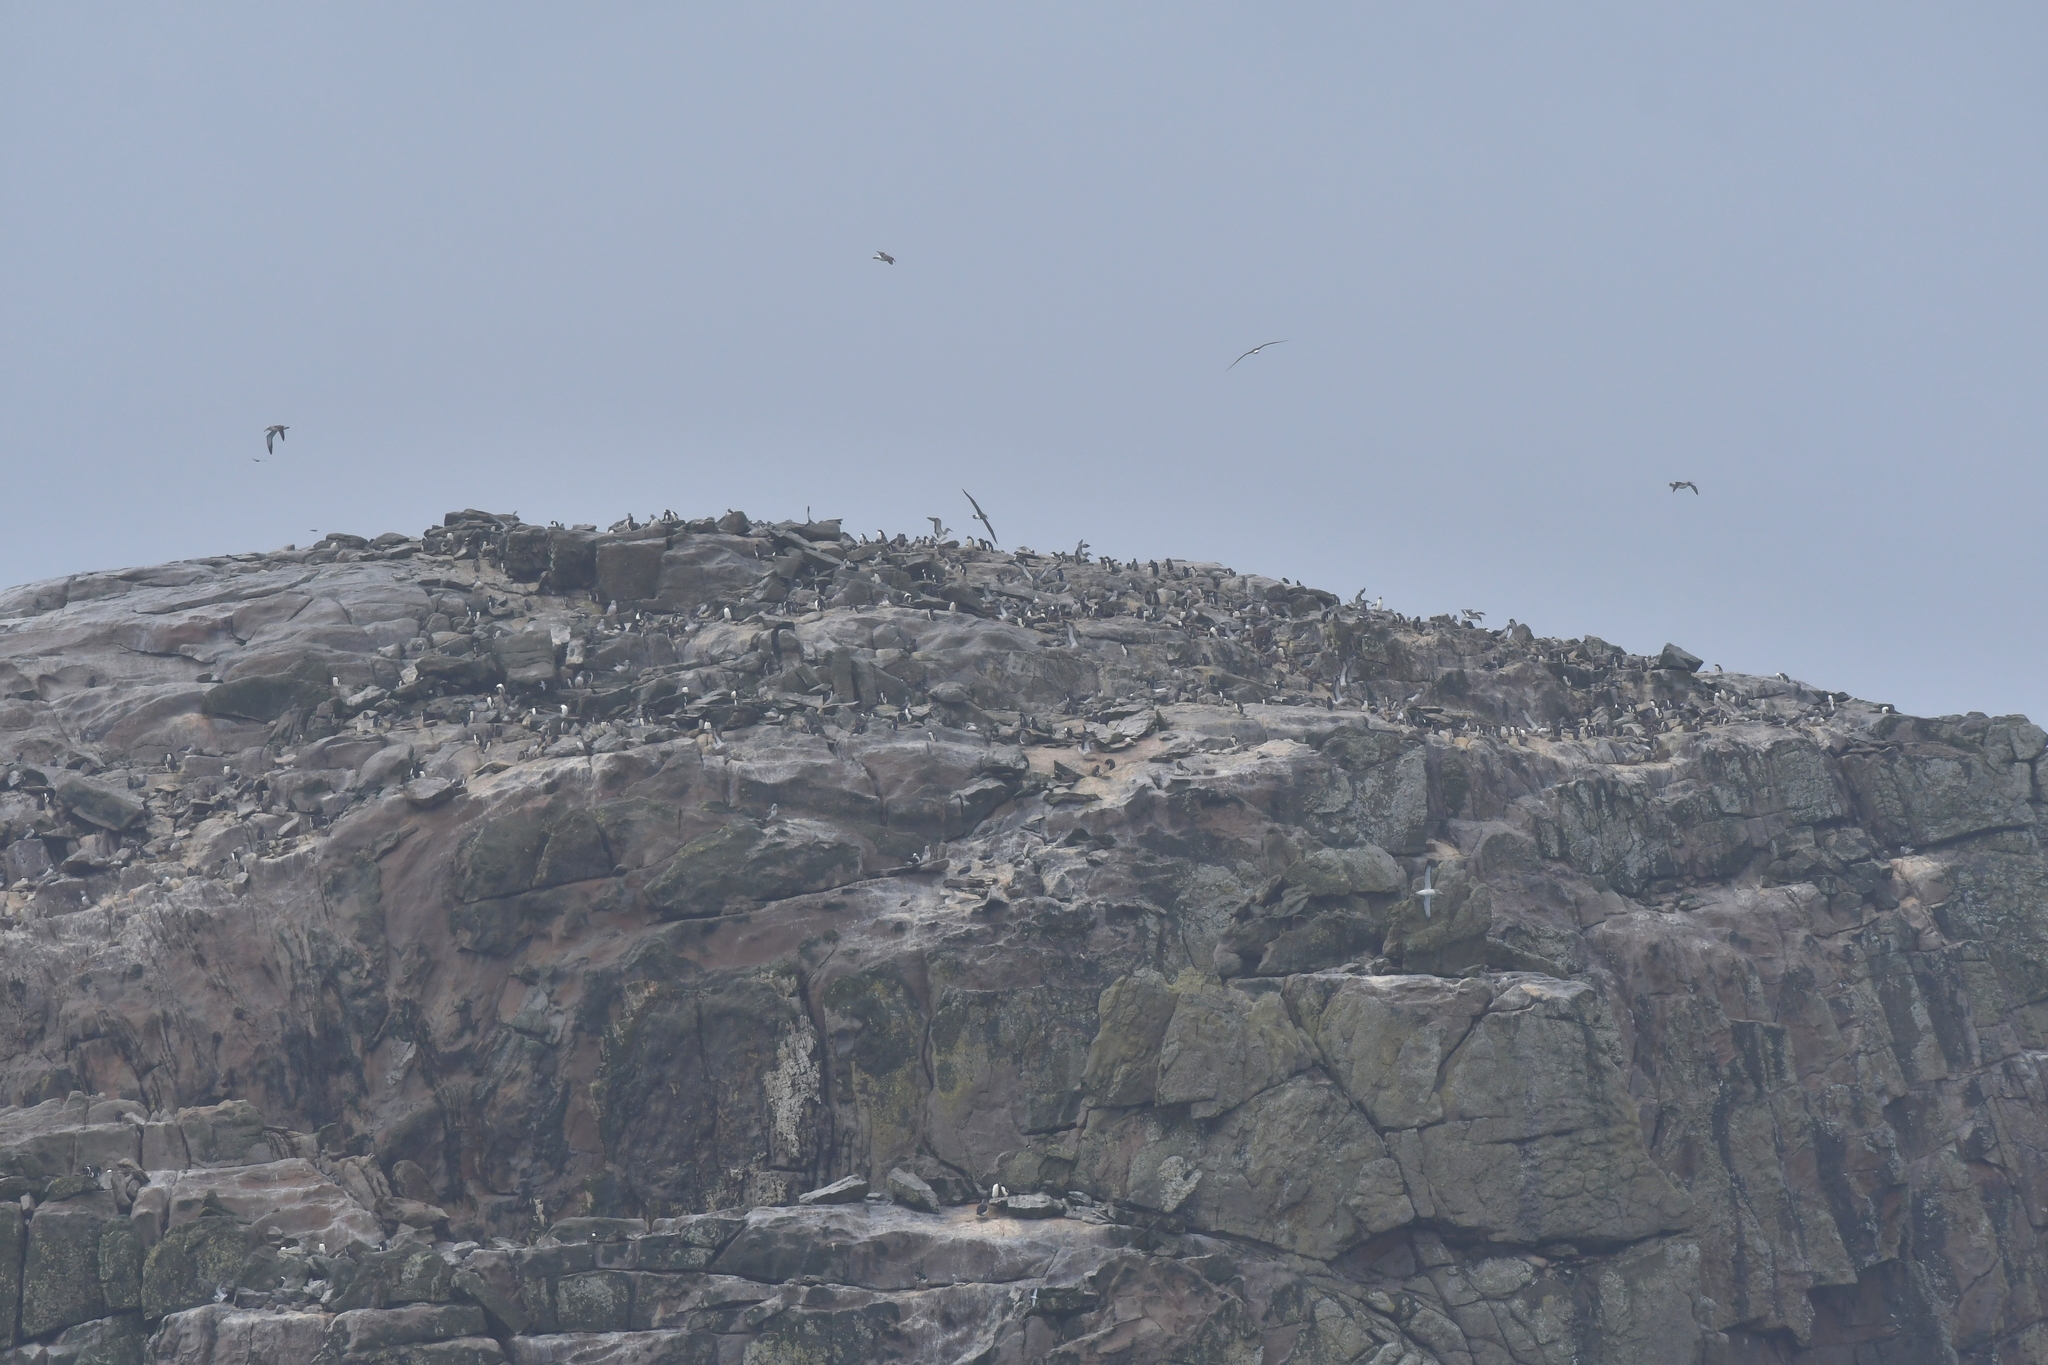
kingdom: Animalia
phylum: Chordata
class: Aves
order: Sphenisciformes
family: Spheniscidae
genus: Eudyptes
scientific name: Eudyptes sclateri
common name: Erect-crested penguin
